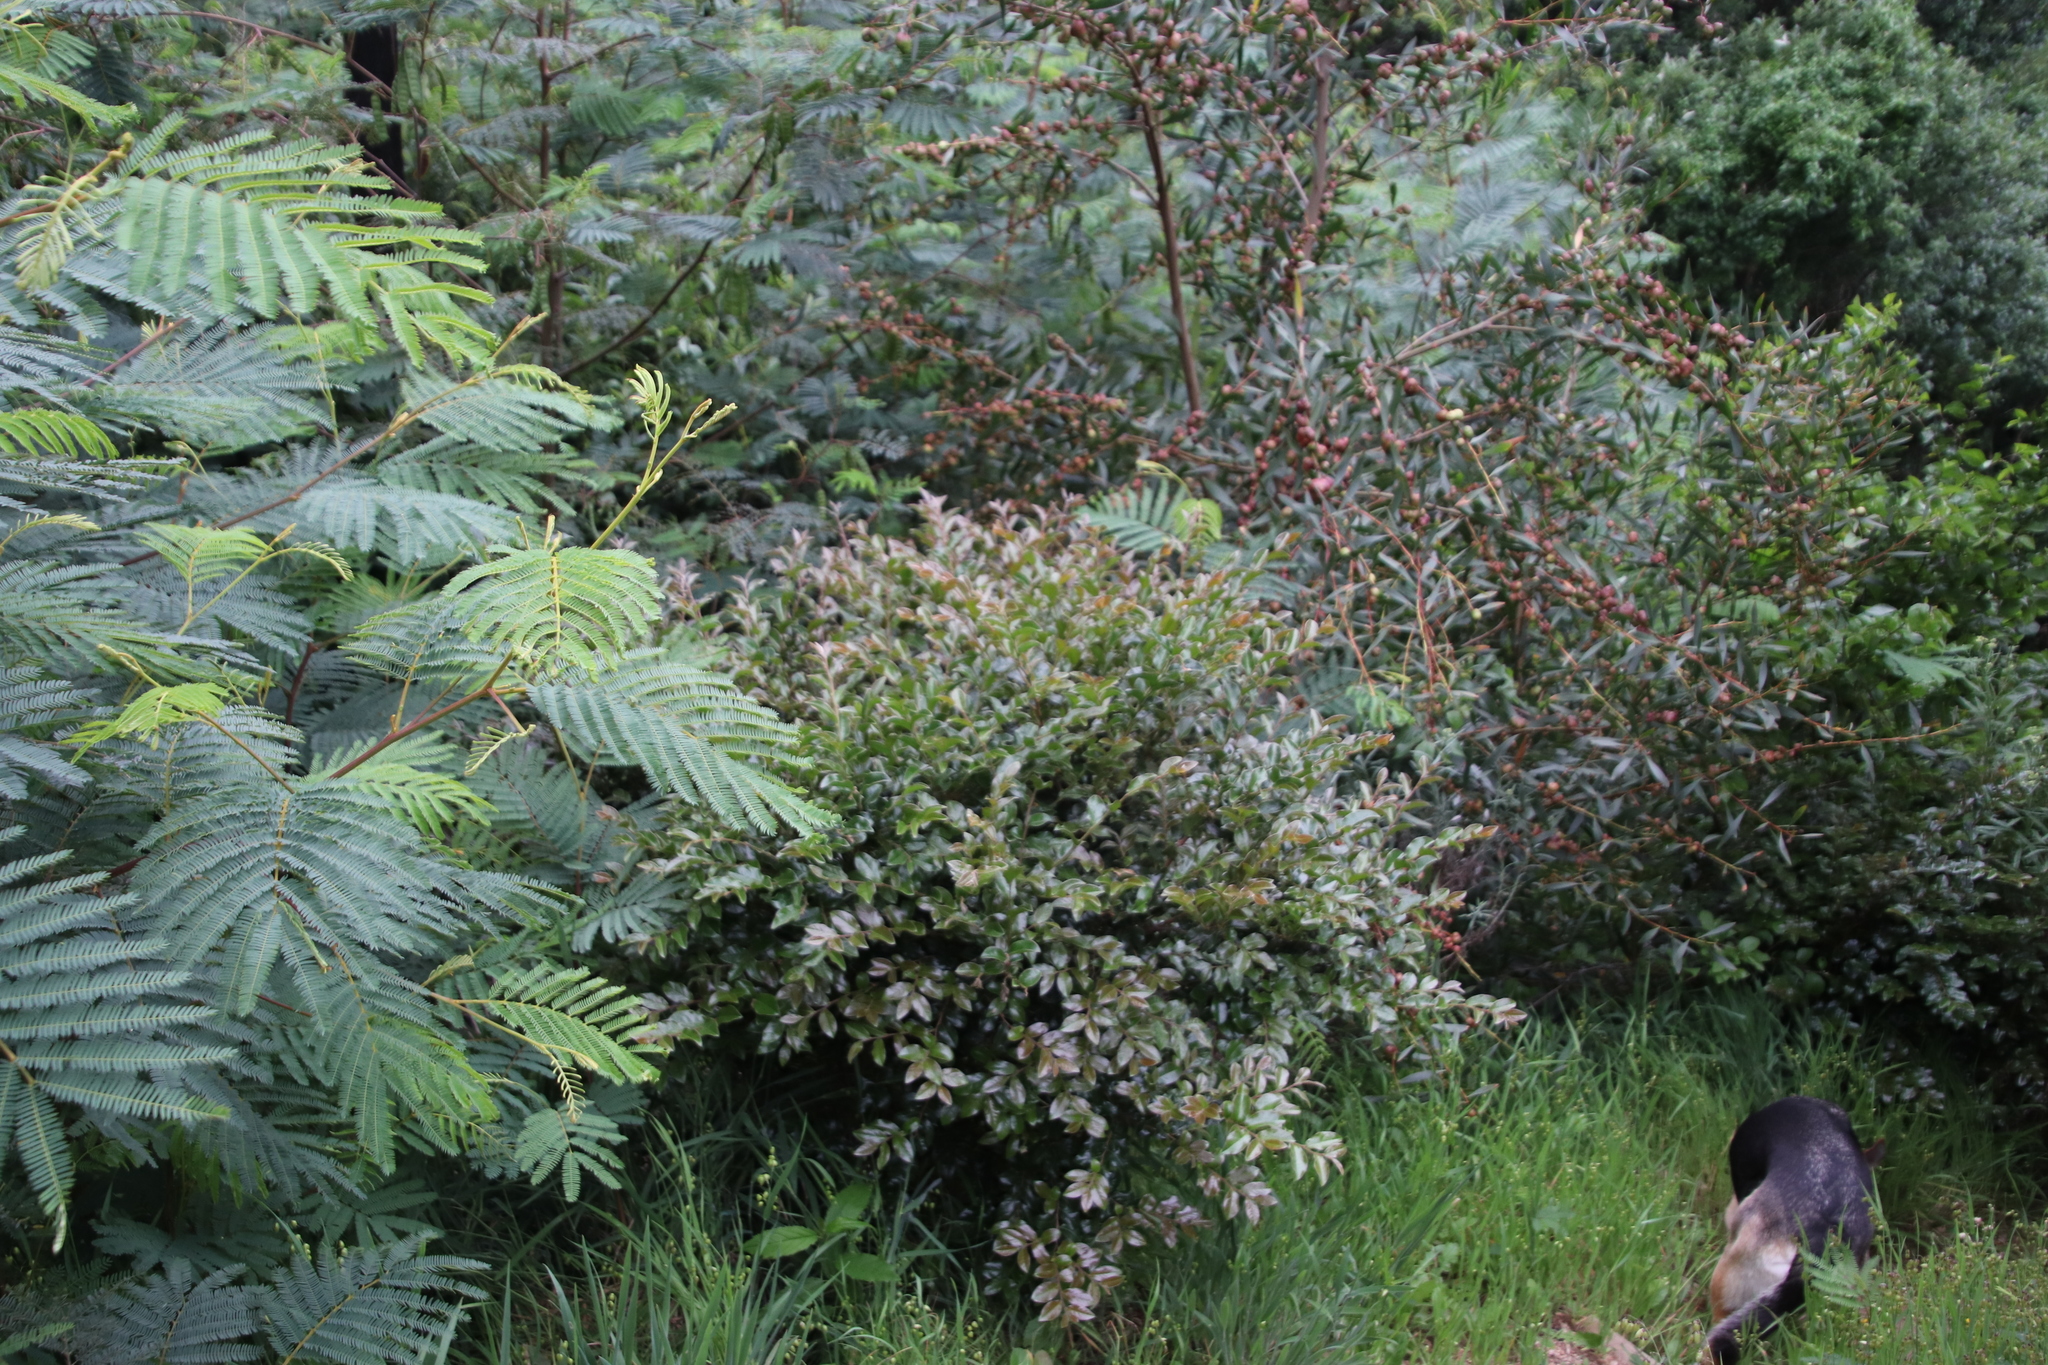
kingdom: Plantae
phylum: Tracheophyta
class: Magnoliopsida
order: Ericales
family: Ebenaceae
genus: Diospyros
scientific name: Diospyros whyteana
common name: Bladder-nut
